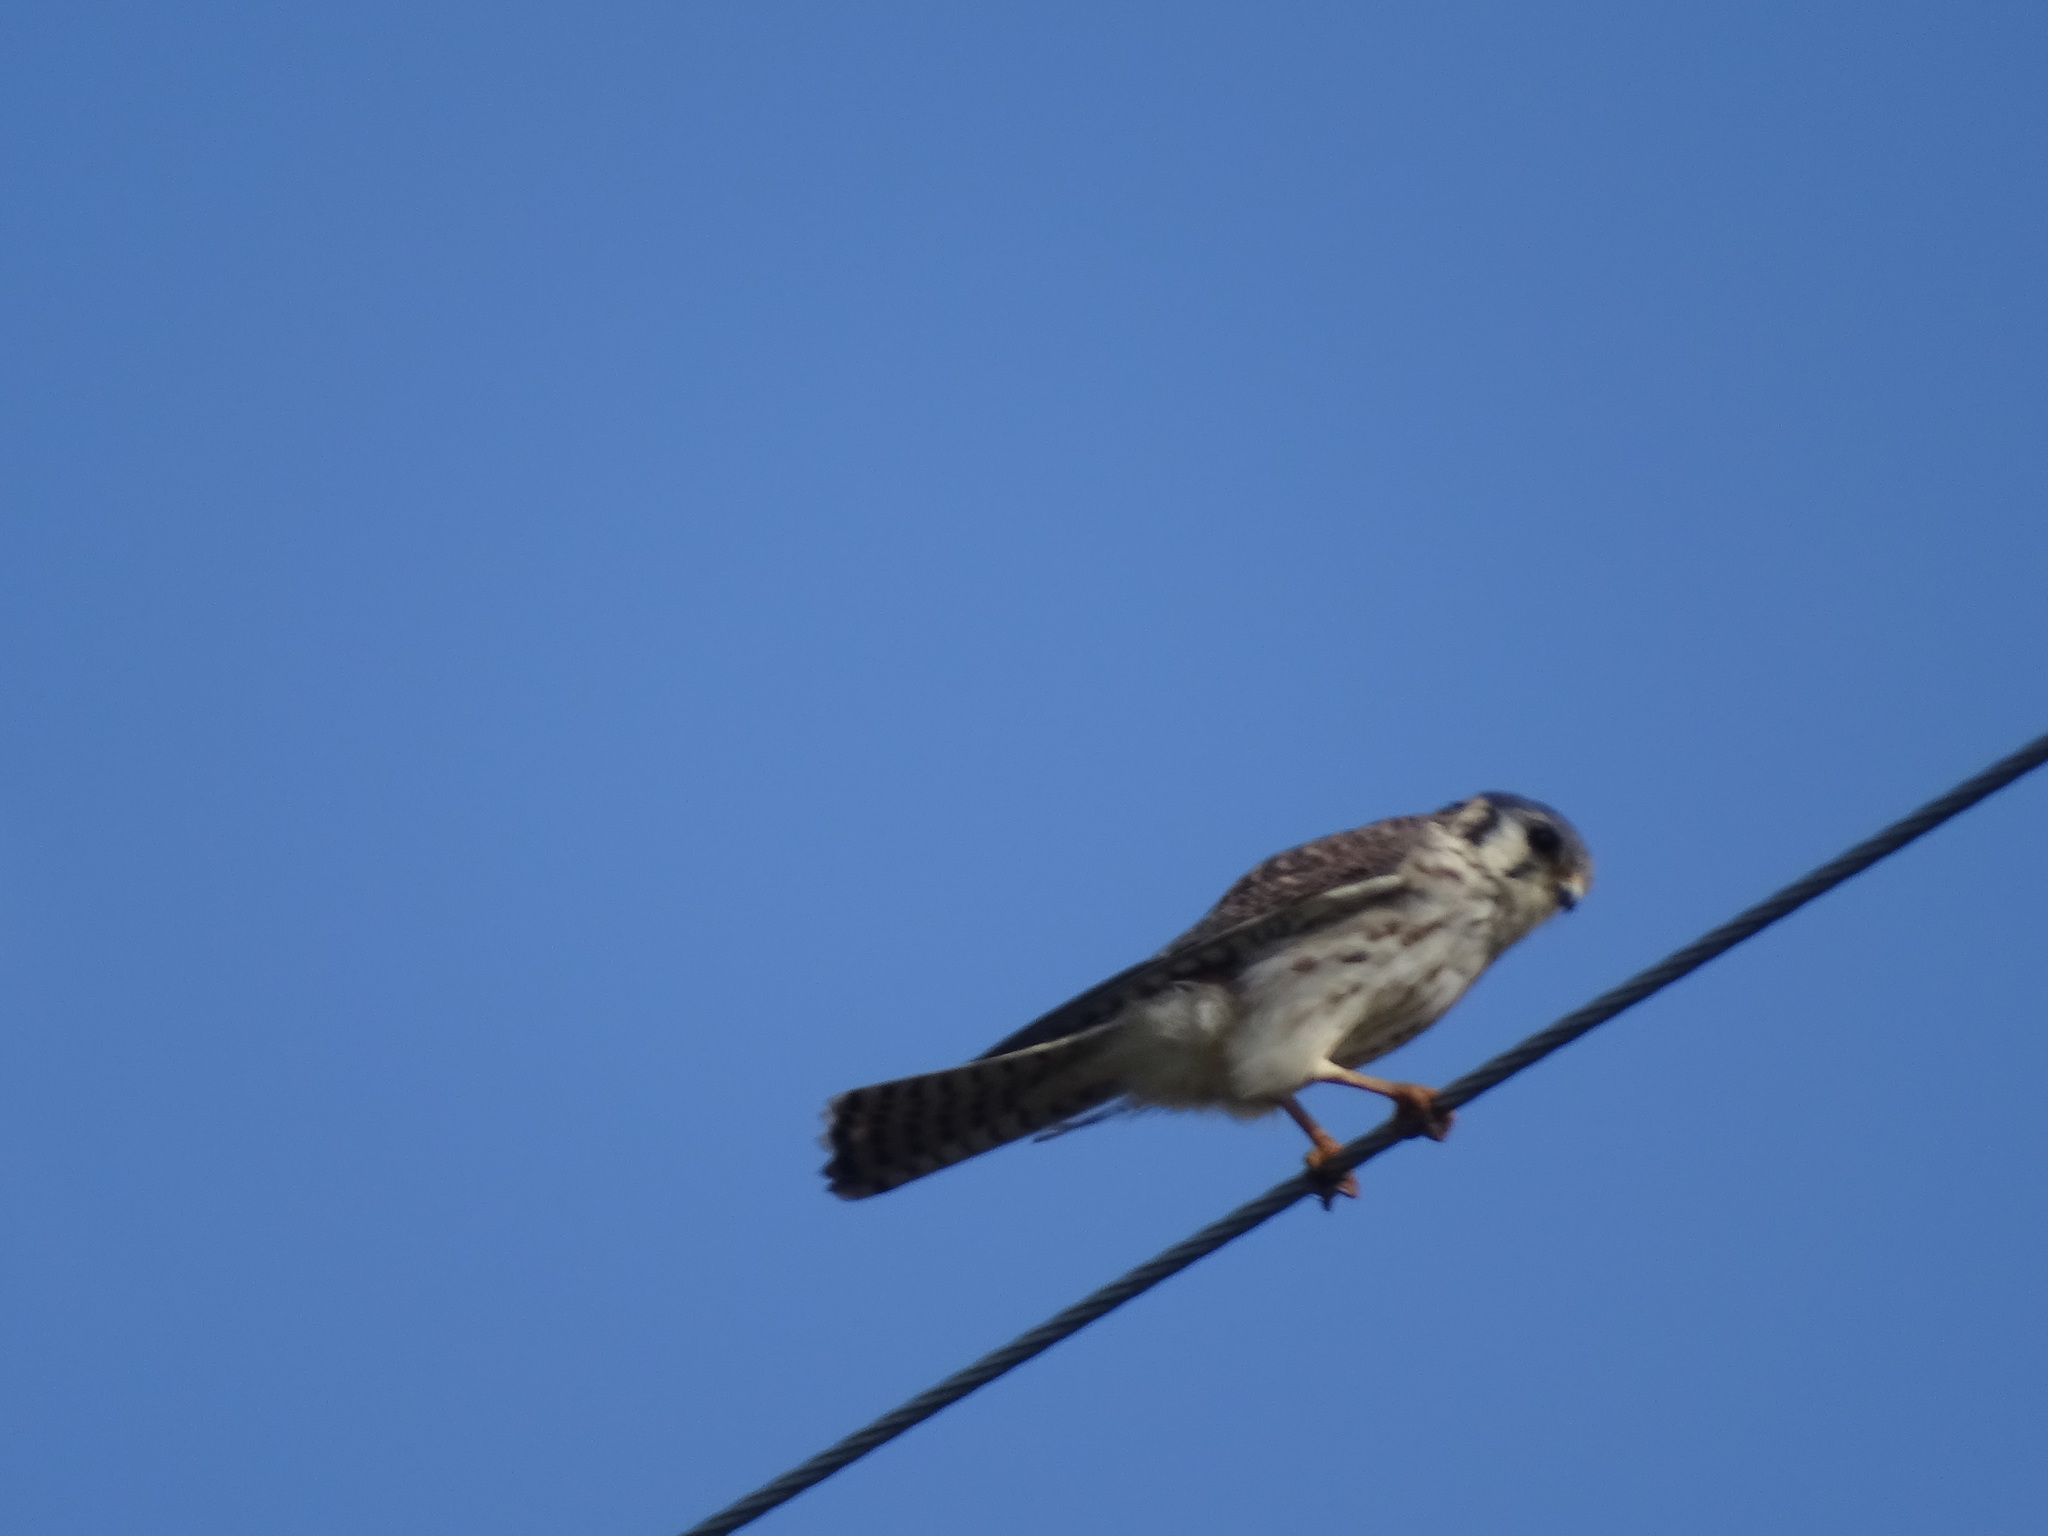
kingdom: Animalia
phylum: Chordata
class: Aves
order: Falconiformes
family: Falconidae
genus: Falco
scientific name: Falco sparverius
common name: American kestrel
